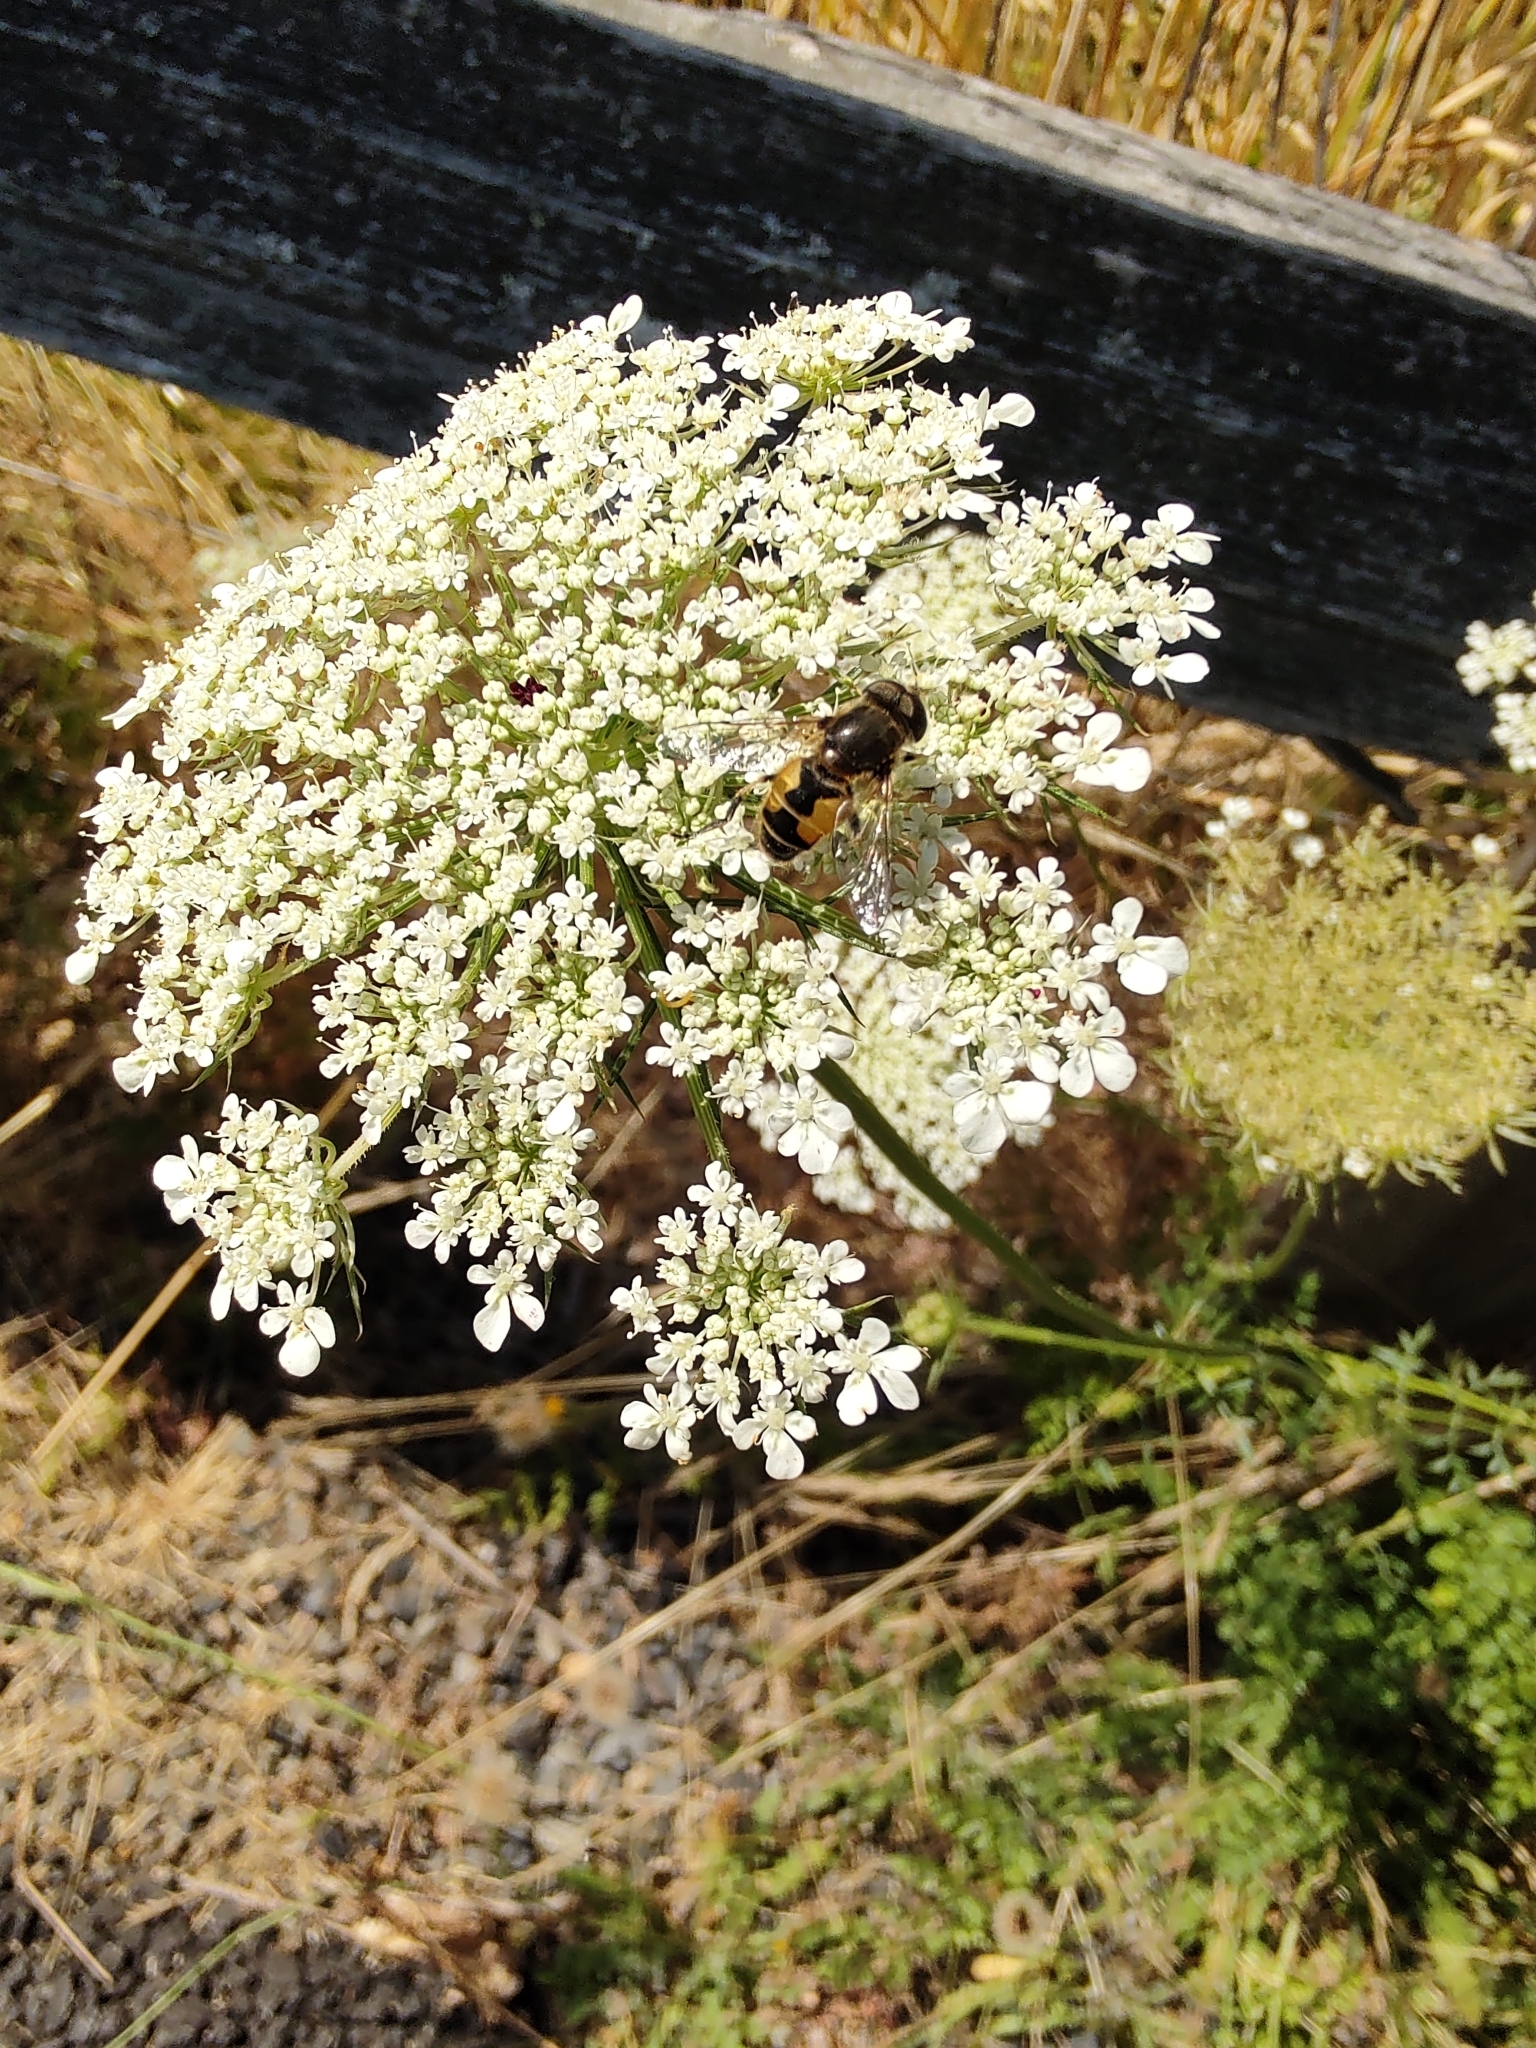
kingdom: Animalia
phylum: Arthropoda
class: Insecta
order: Diptera
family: Syrphidae
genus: Eristalis
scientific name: Eristalis arbustorum
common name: Hover fly
